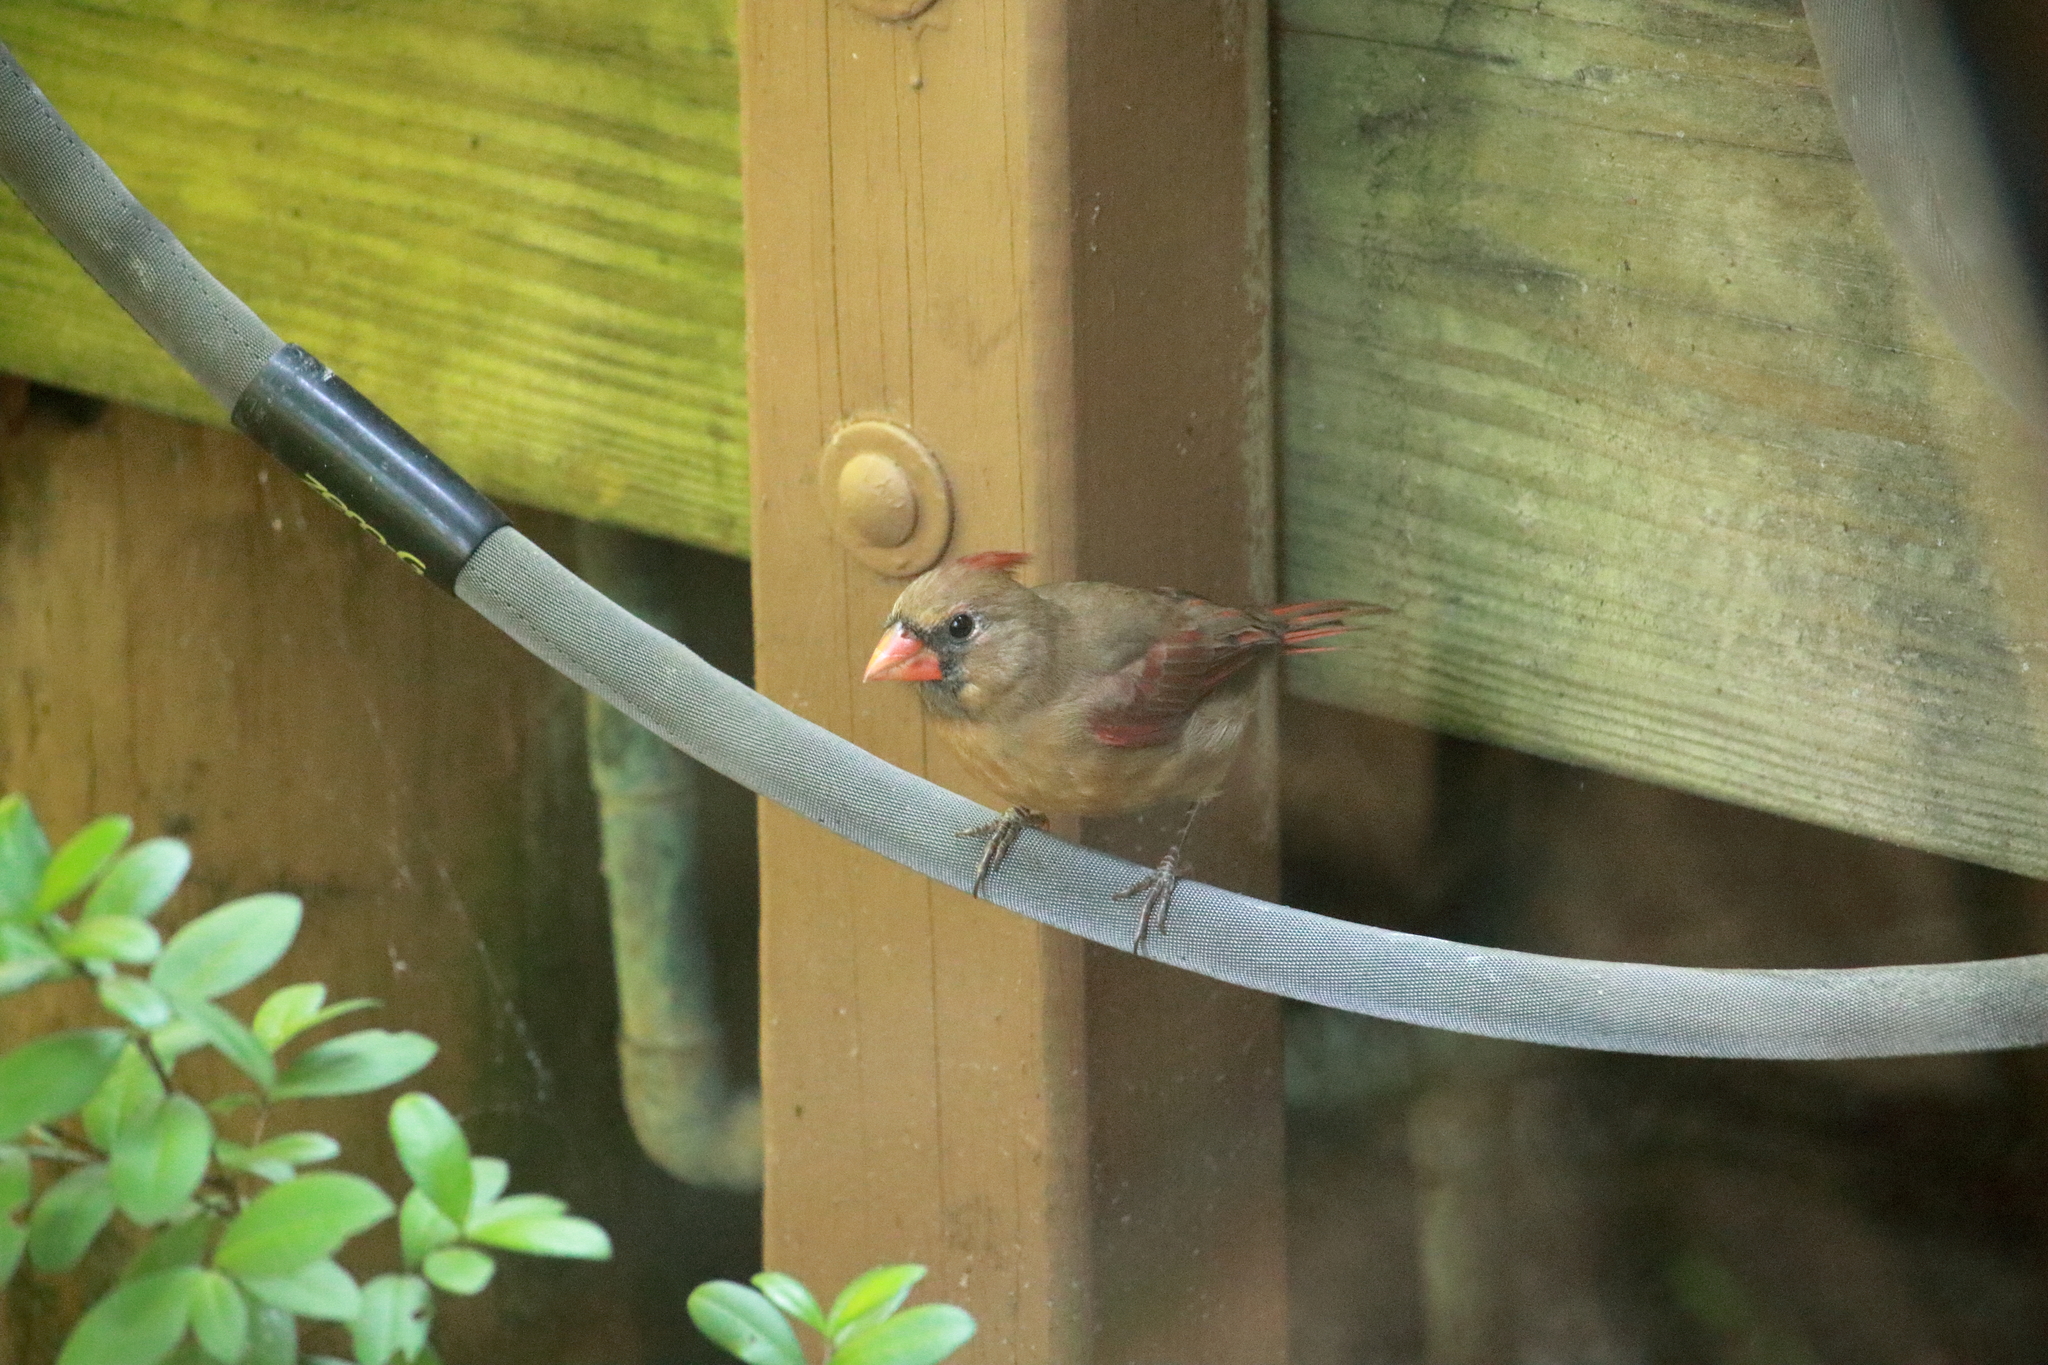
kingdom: Animalia
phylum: Chordata
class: Aves
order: Passeriformes
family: Cardinalidae
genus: Cardinalis
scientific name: Cardinalis cardinalis
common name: Northern cardinal
